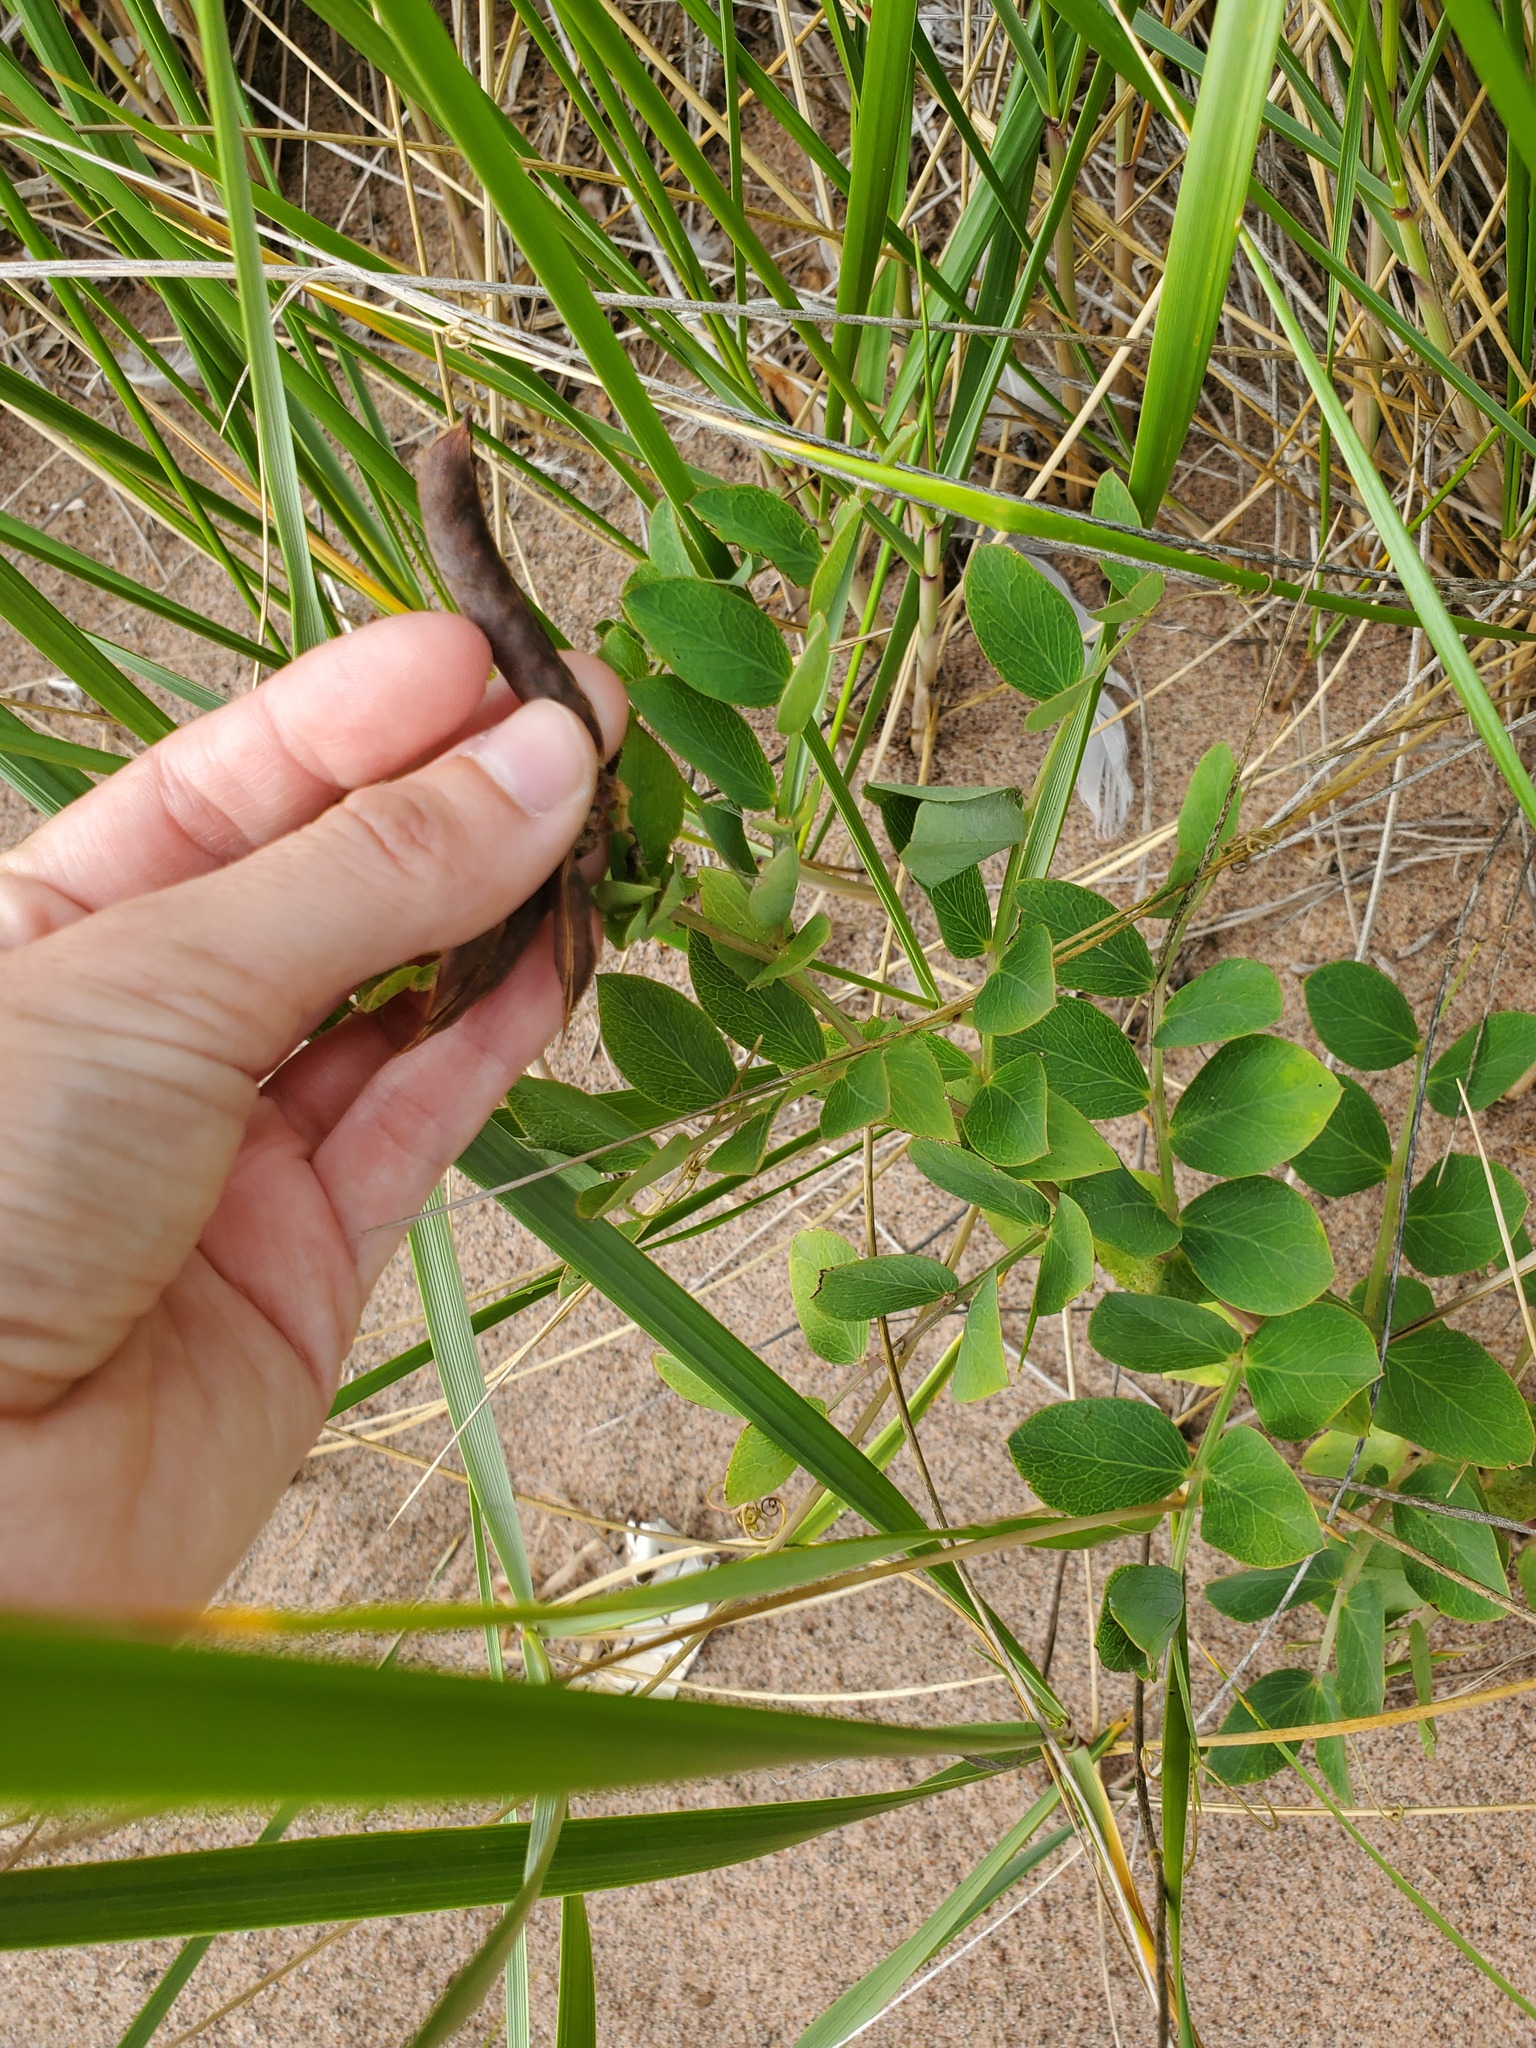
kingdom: Plantae
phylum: Tracheophyta
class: Magnoliopsida
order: Fabales
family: Fabaceae
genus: Lathyrus
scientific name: Lathyrus japonicus
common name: Sea pea
